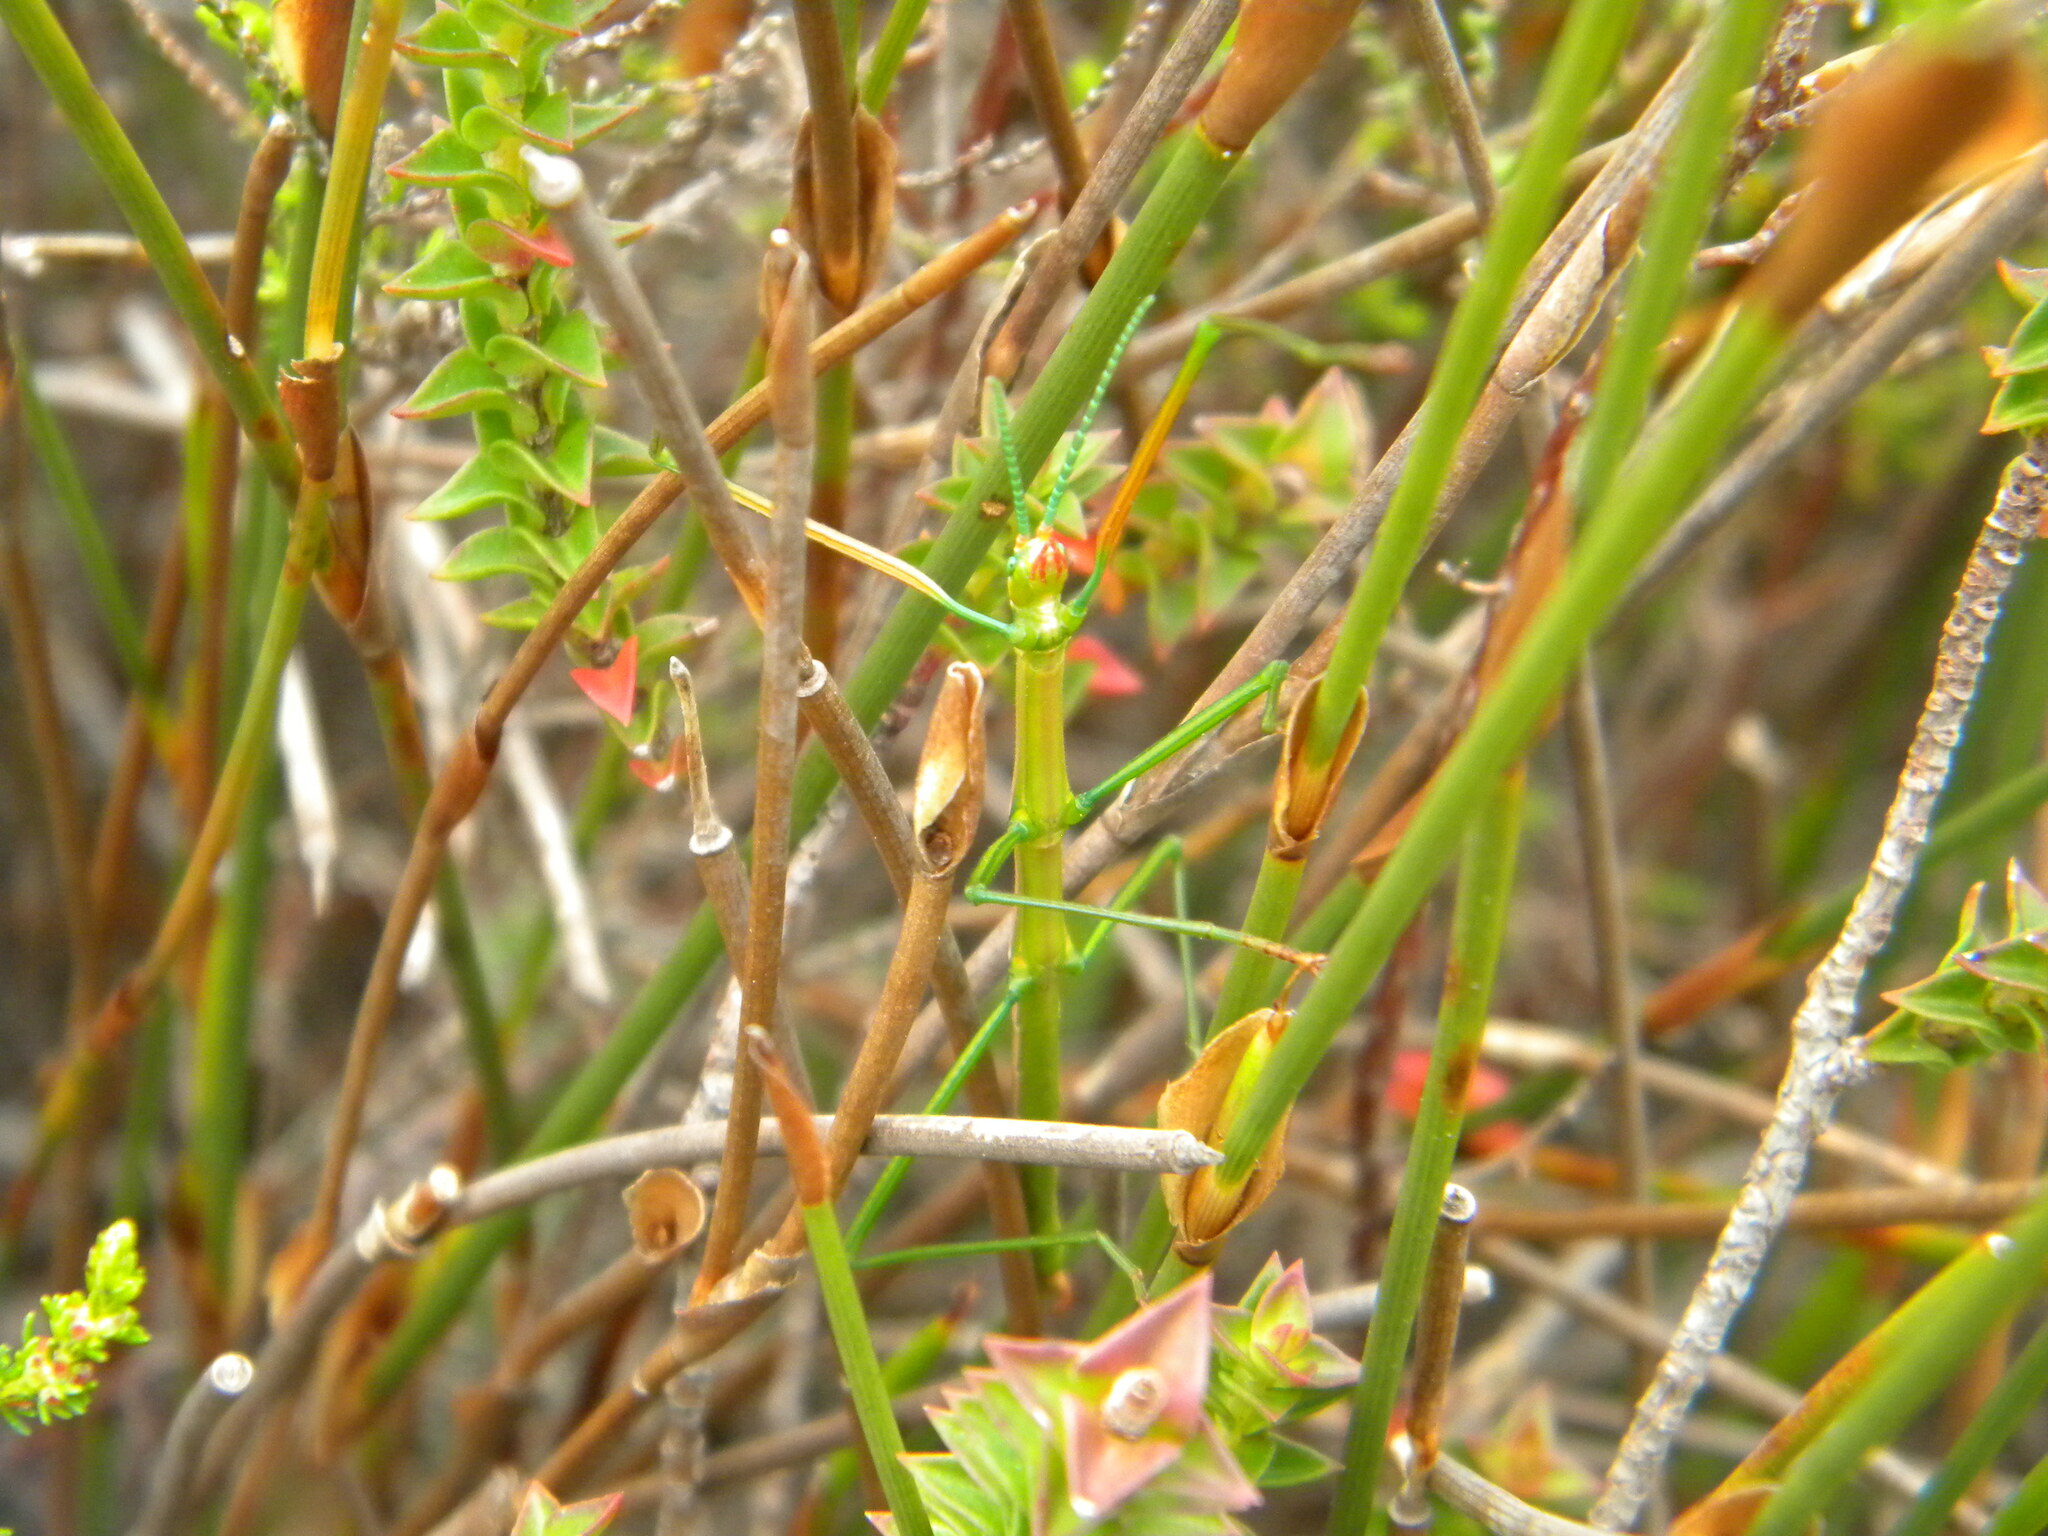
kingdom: Animalia
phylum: Arthropoda
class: Insecta
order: Phasmida
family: Bacillidae
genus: Macynia
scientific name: Macynia labiata
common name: Thunberg's stick insect
